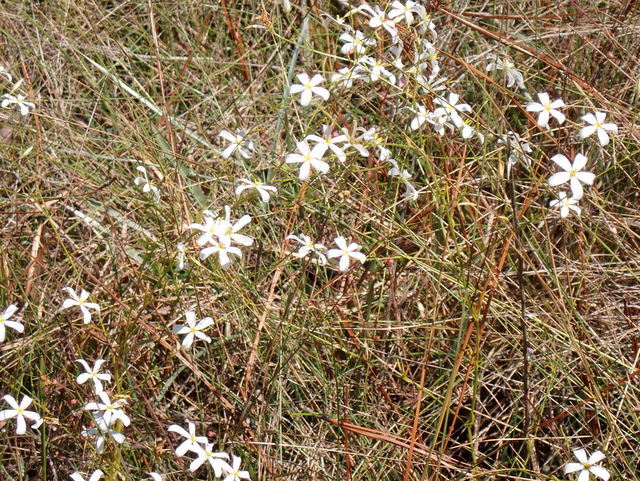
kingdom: Plantae
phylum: Tracheophyta
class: Magnoliopsida
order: Gentianales
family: Gentianaceae
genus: Sabatia
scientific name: Sabatia brevifolia
